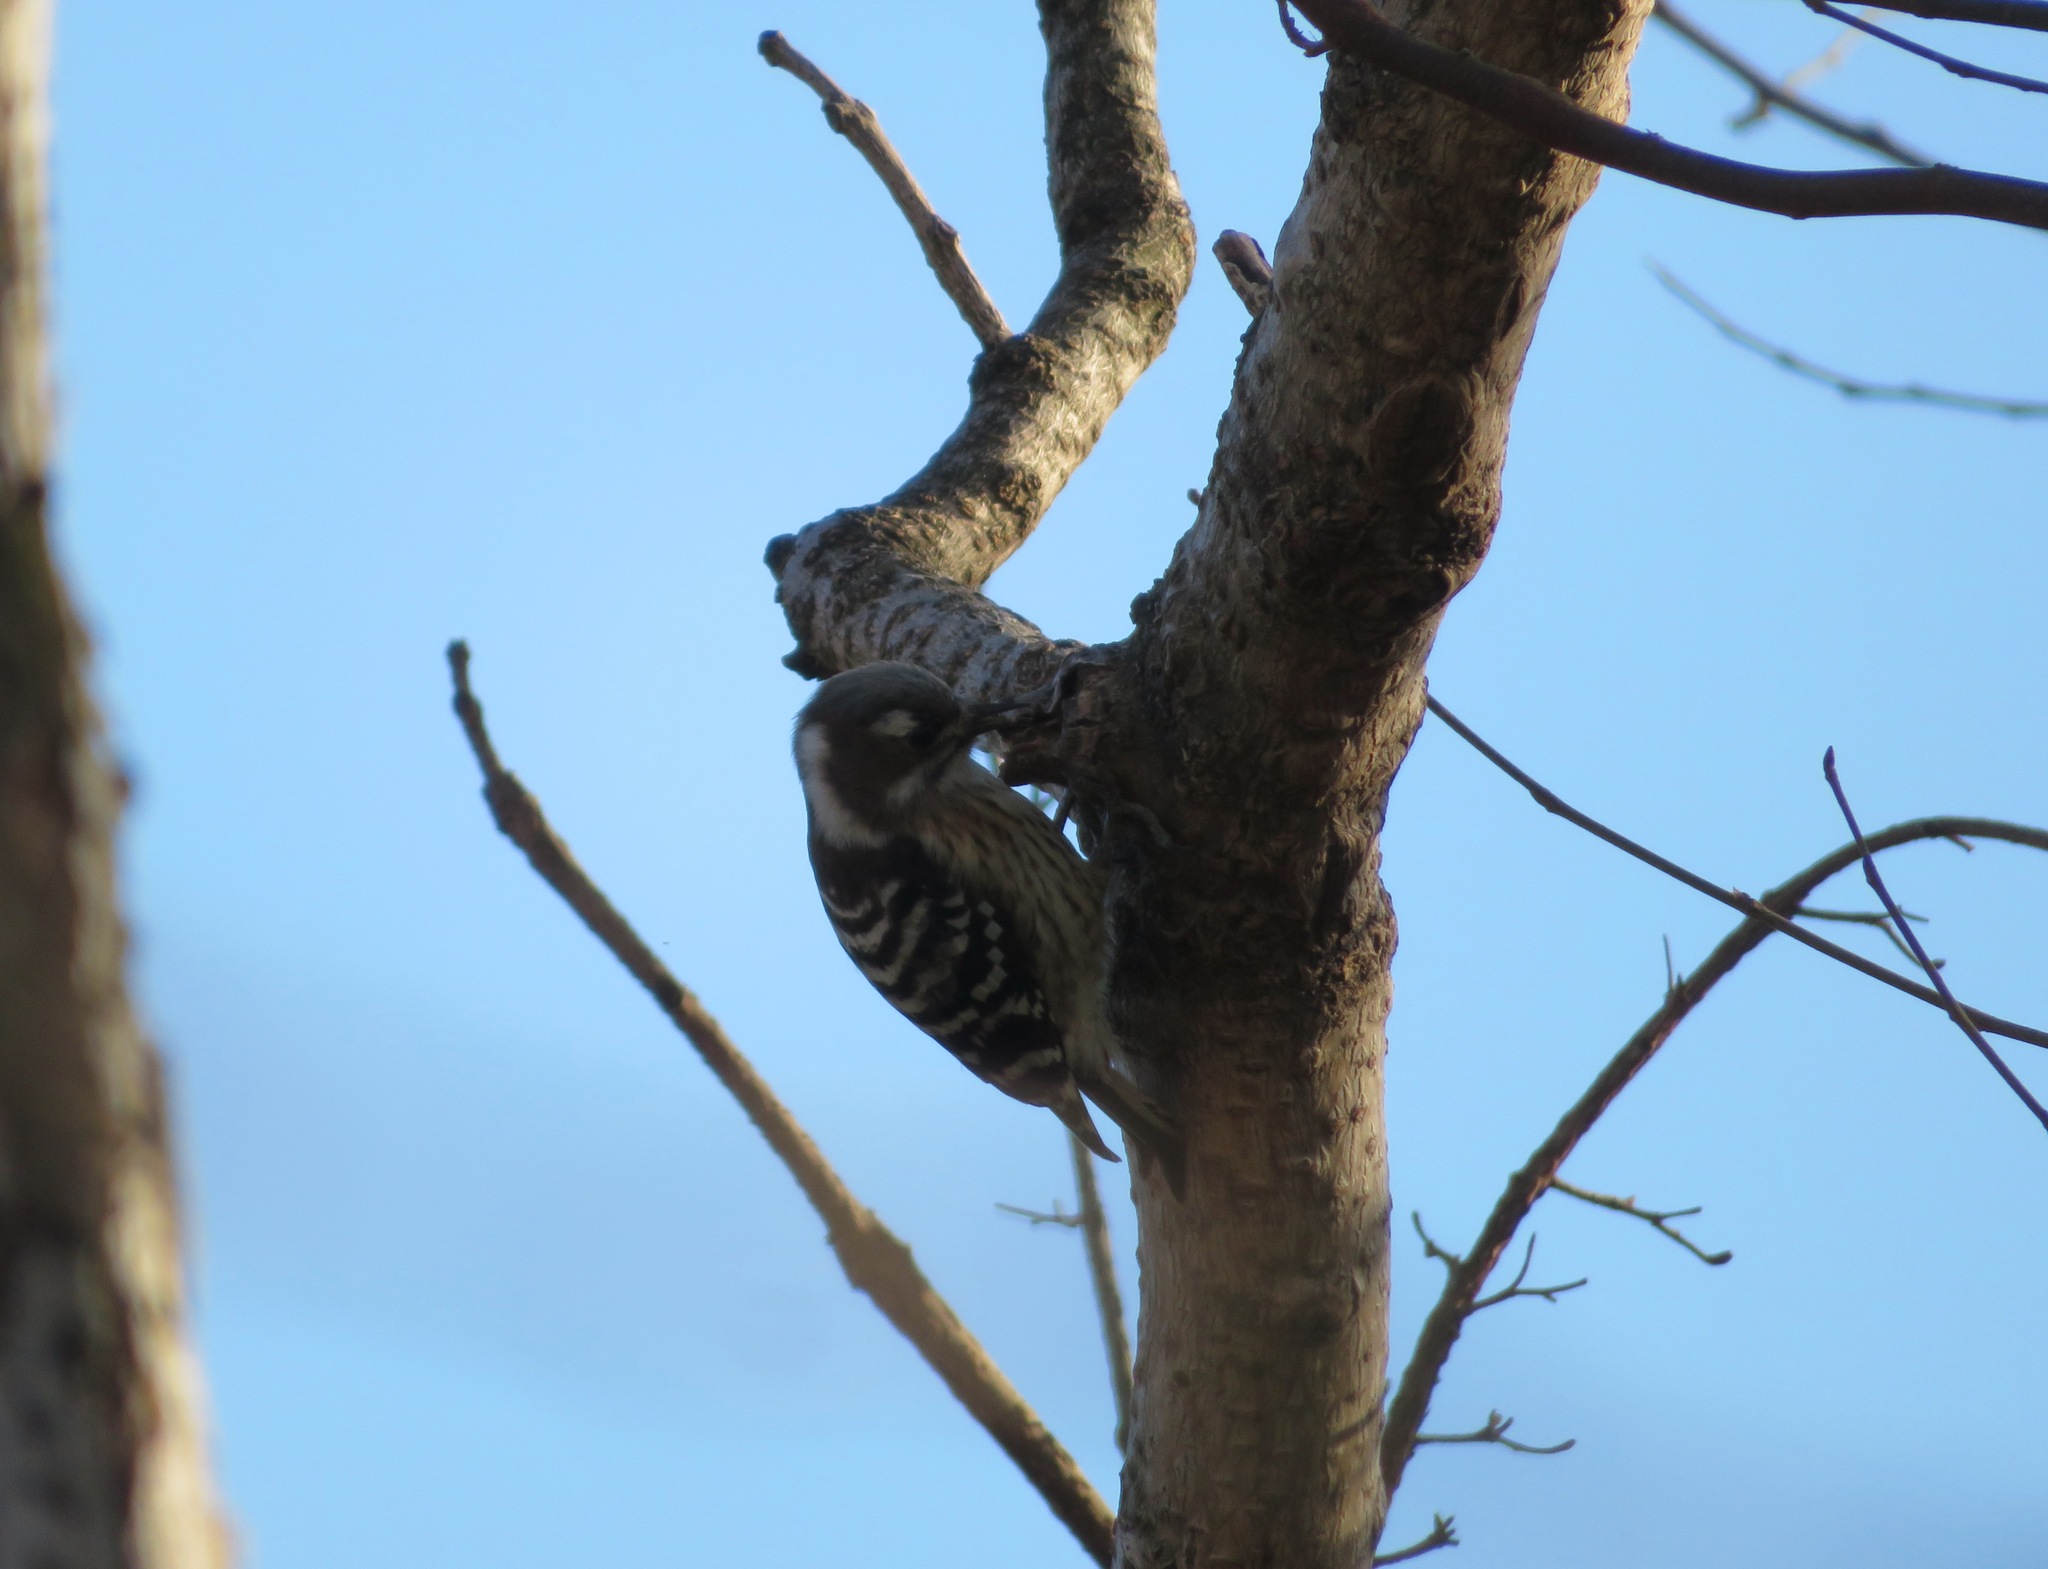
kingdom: Animalia
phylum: Chordata
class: Aves
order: Piciformes
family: Picidae
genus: Yungipicus
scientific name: Yungipicus kizuki
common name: Japanese pygmy woodpecker
